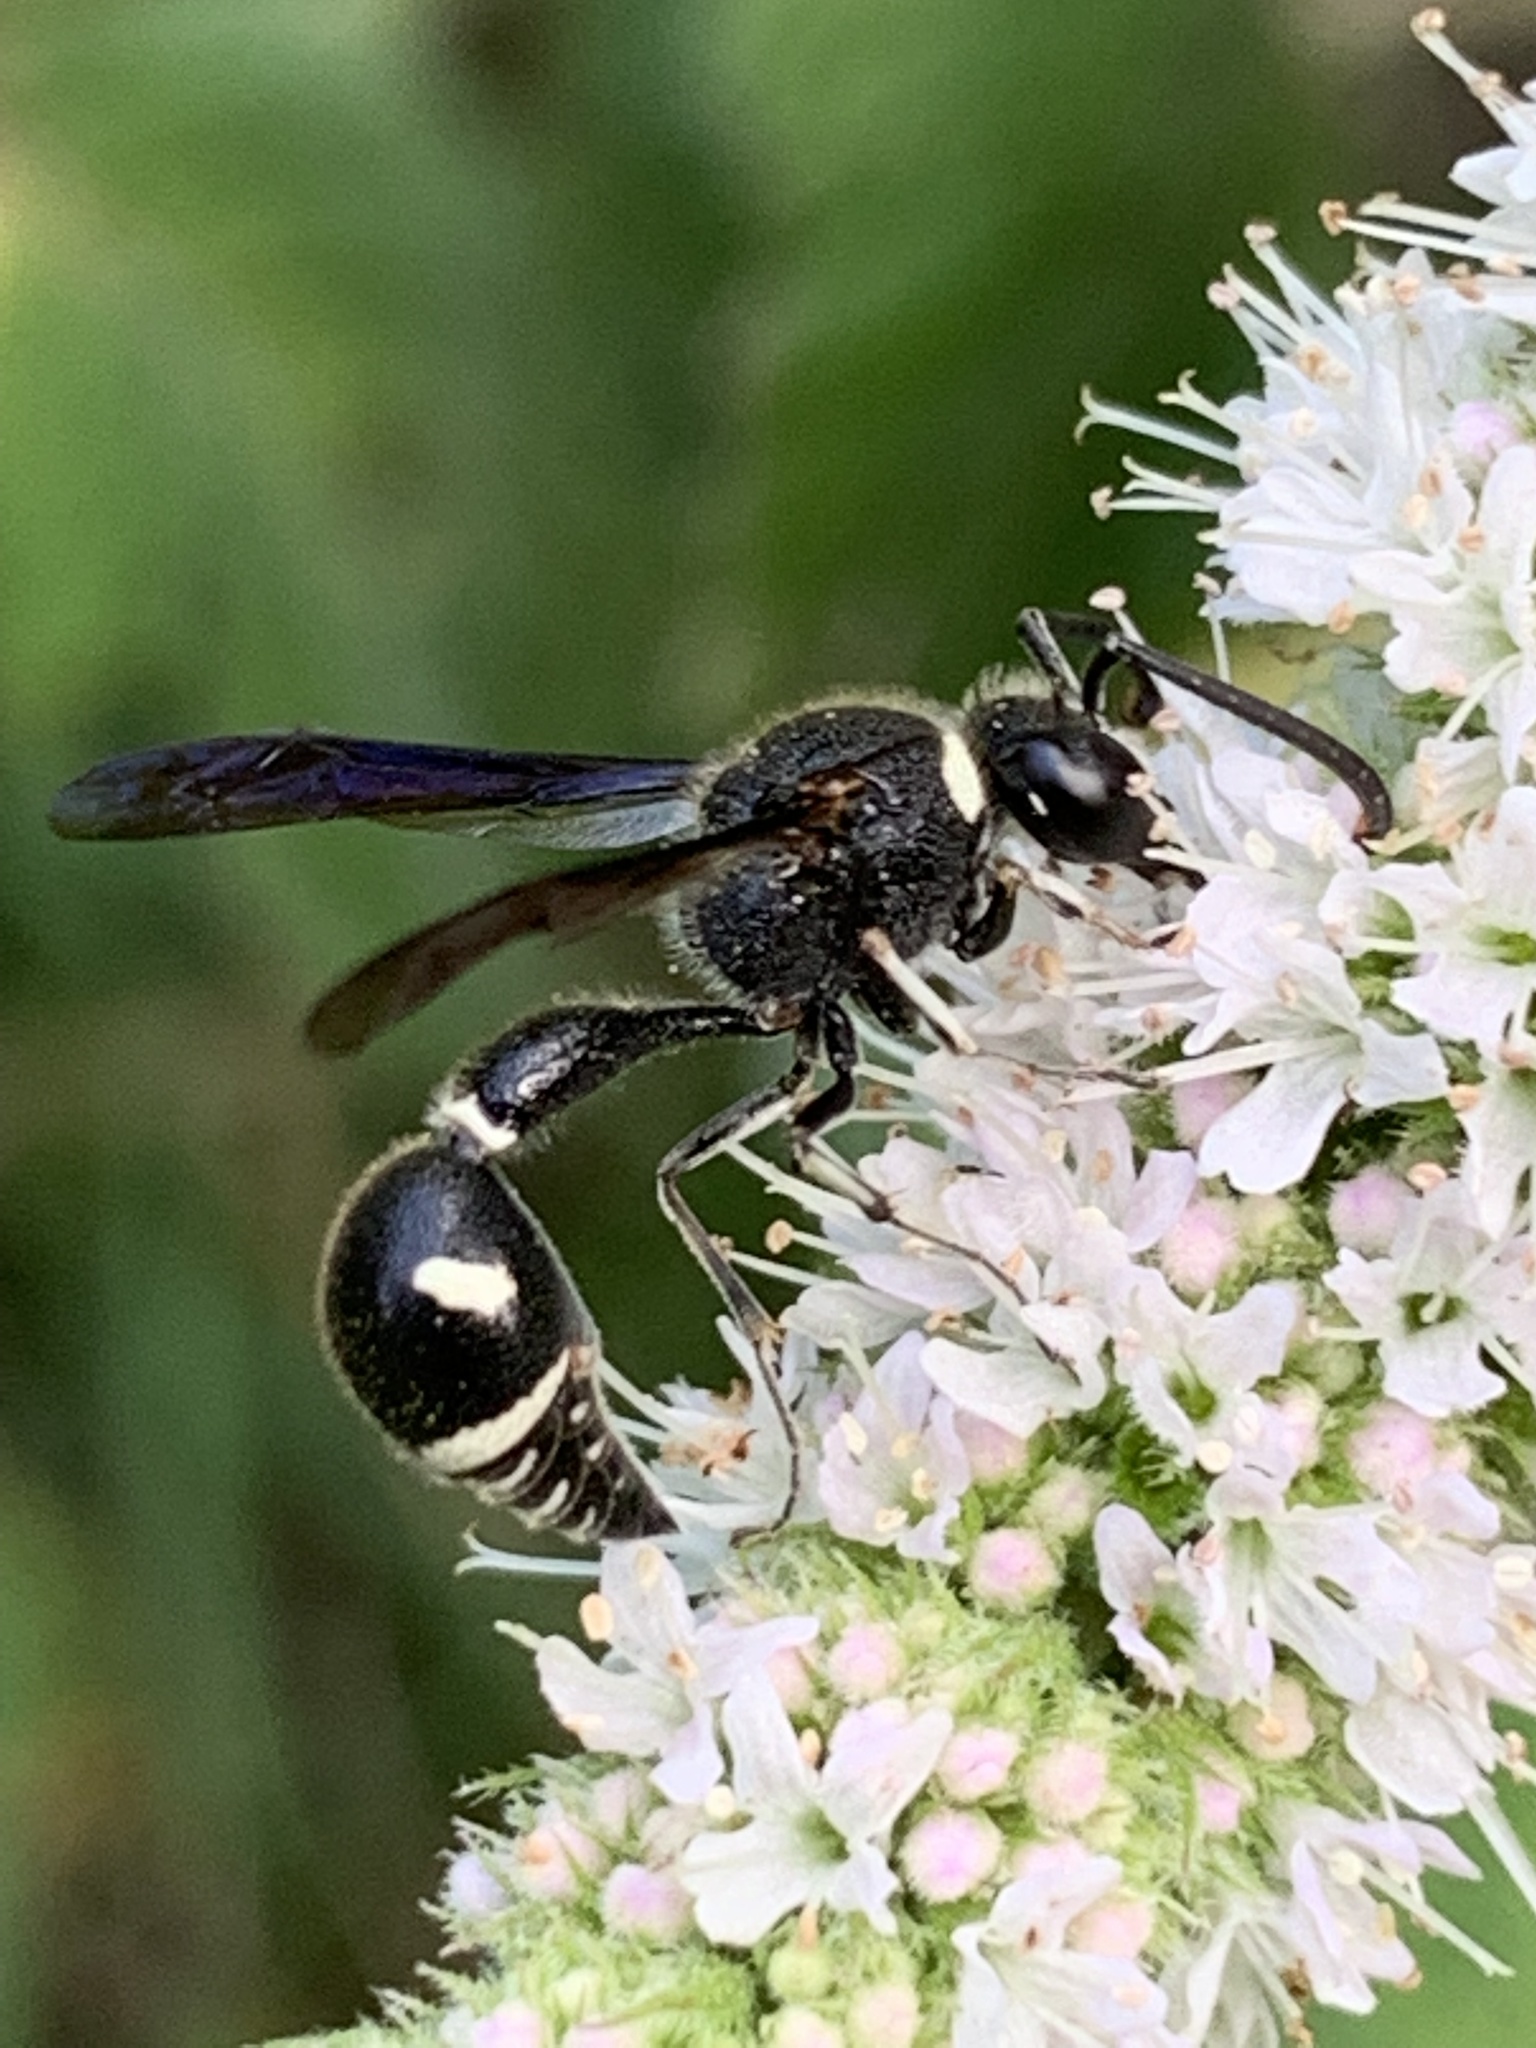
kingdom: Animalia
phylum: Arthropoda
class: Insecta
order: Hymenoptera
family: Vespidae
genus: Eumenes
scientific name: Eumenes fraternus
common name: Fraternal potter wasp
